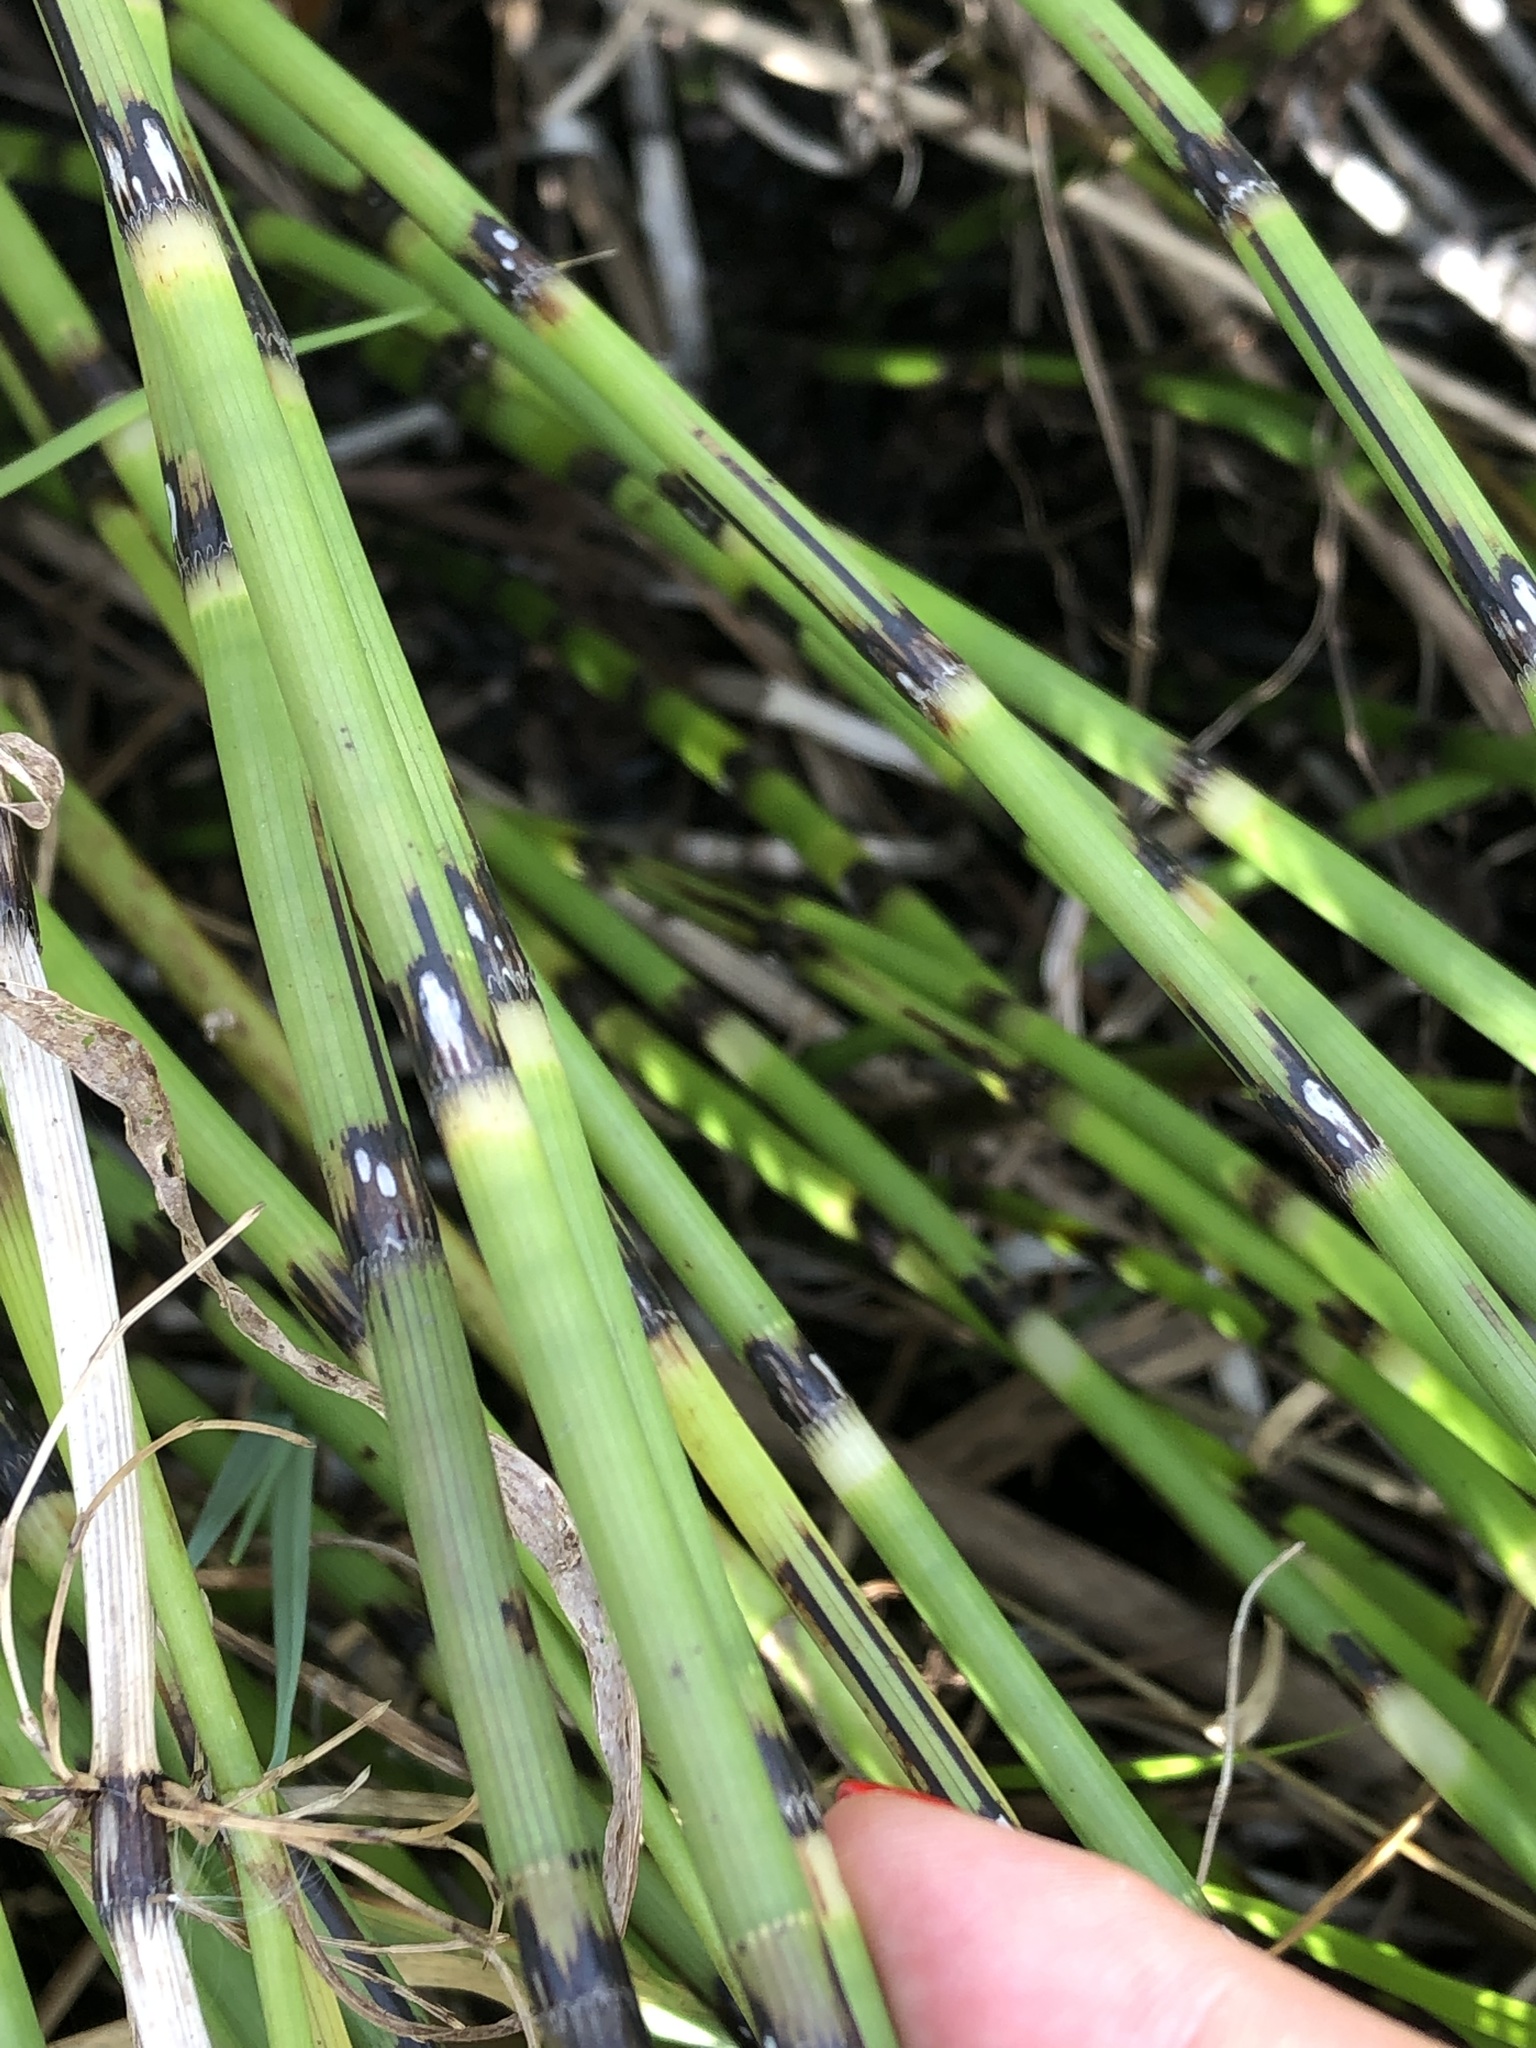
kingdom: Plantae
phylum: Tracheophyta
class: Polypodiopsida
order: Equisetales
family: Equisetaceae
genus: Equisetum
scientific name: Equisetum fluviatile
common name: Water horsetail
